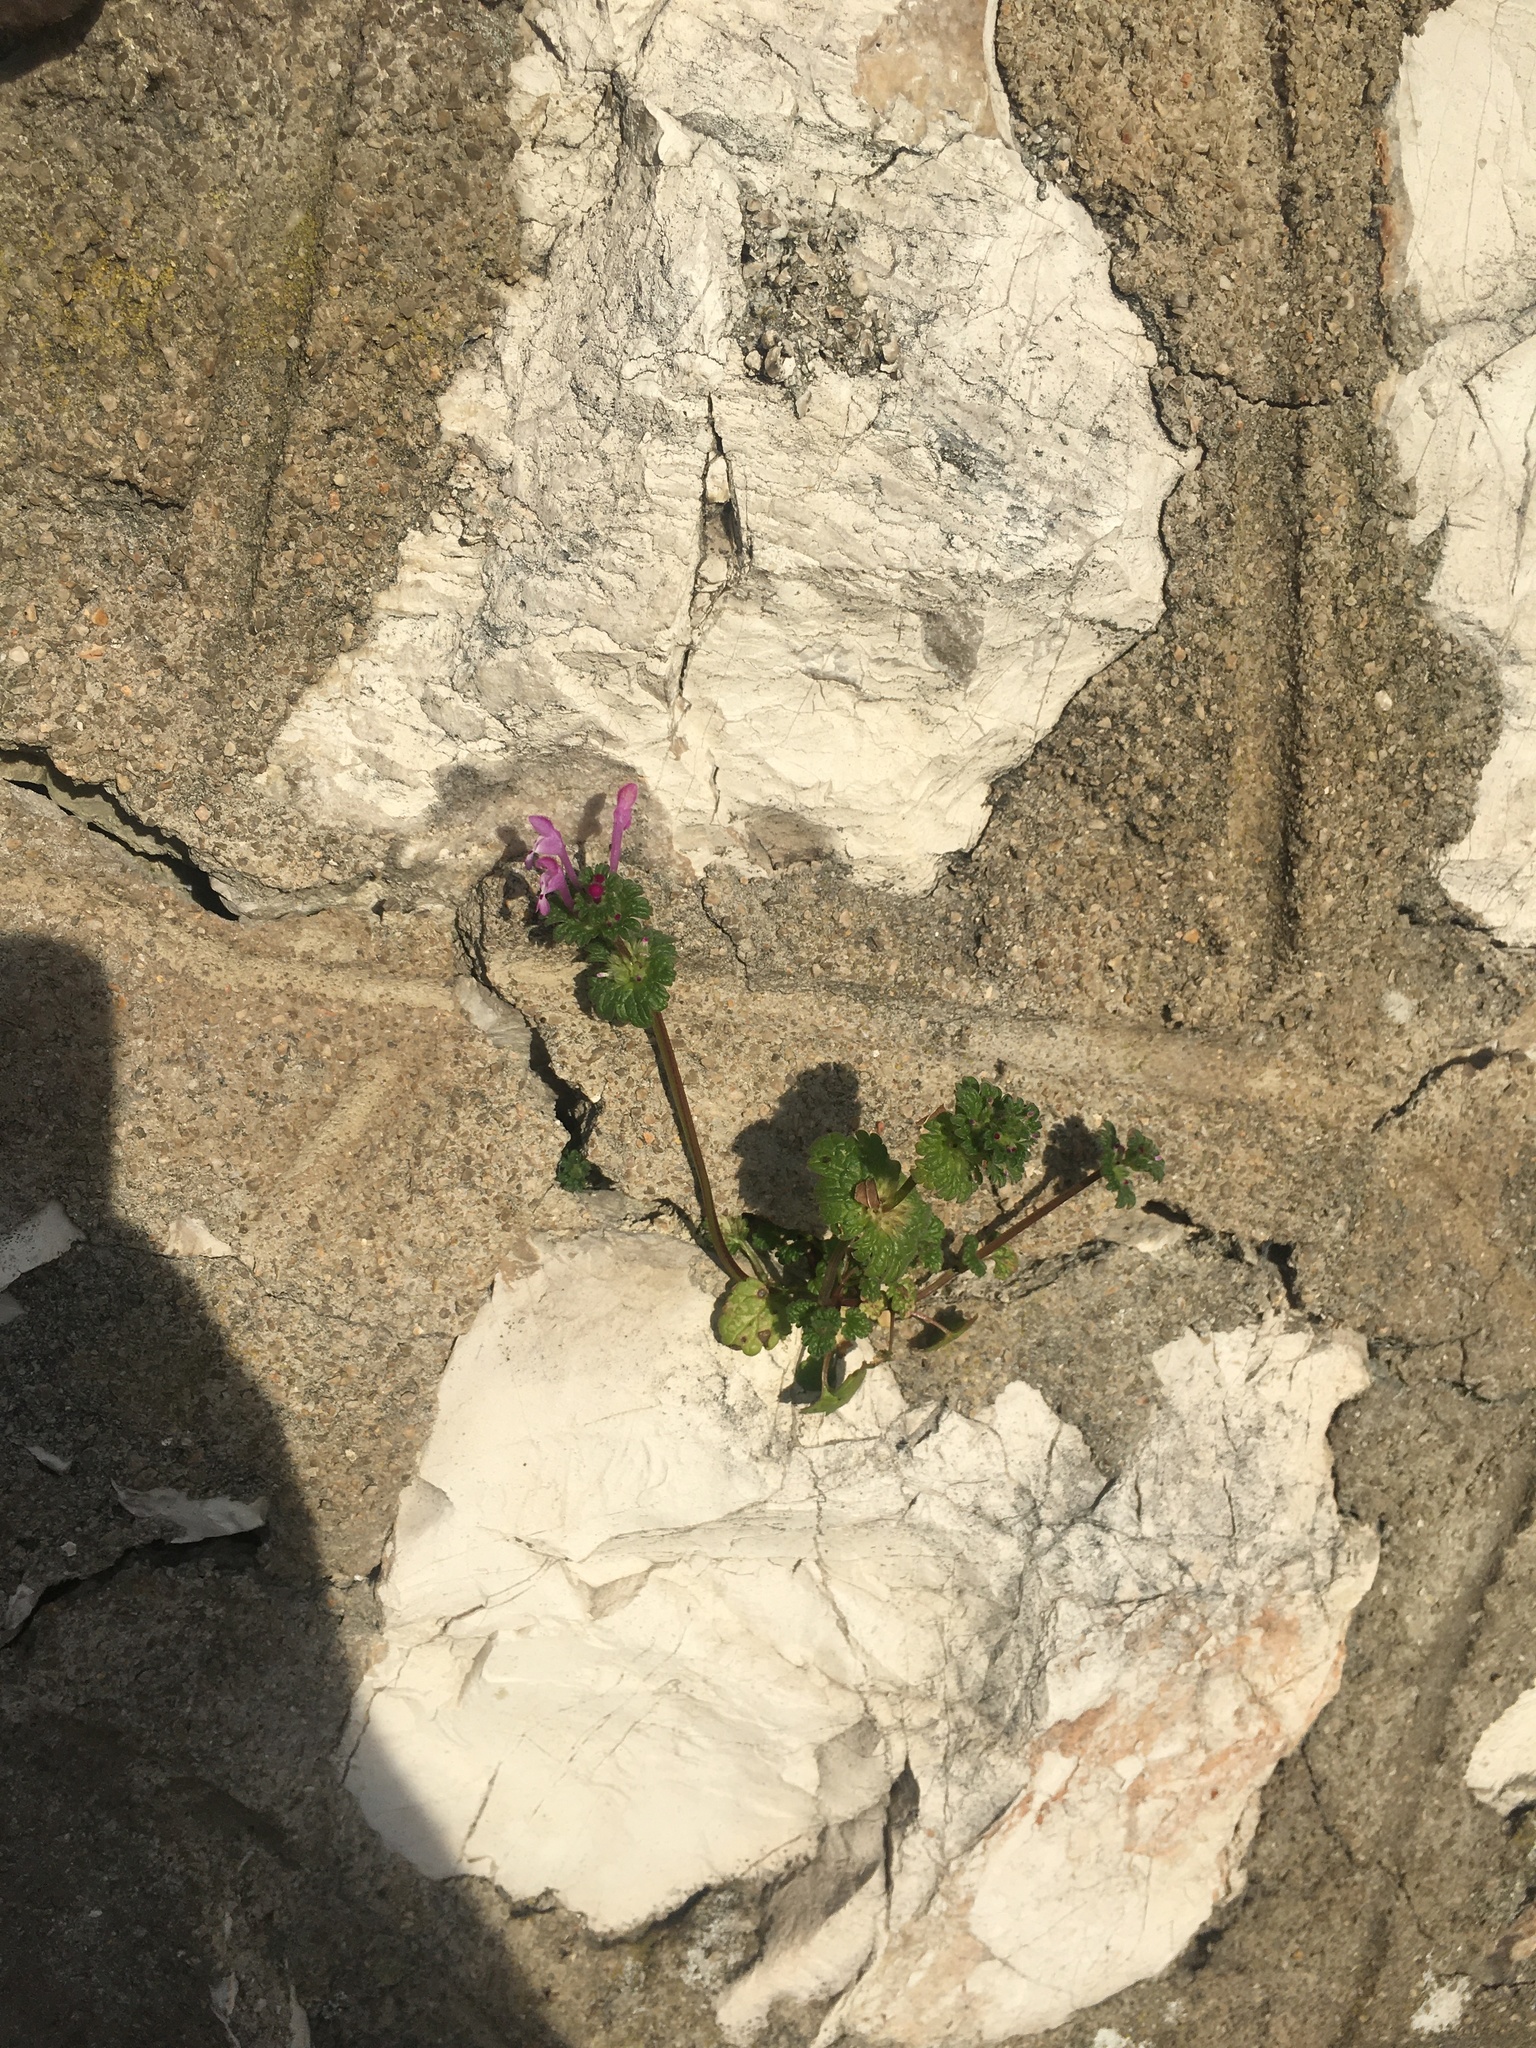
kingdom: Plantae
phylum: Tracheophyta
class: Magnoliopsida
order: Lamiales
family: Lamiaceae
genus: Lamium
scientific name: Lamium amplexicaule
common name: Henbit dead-nettle
